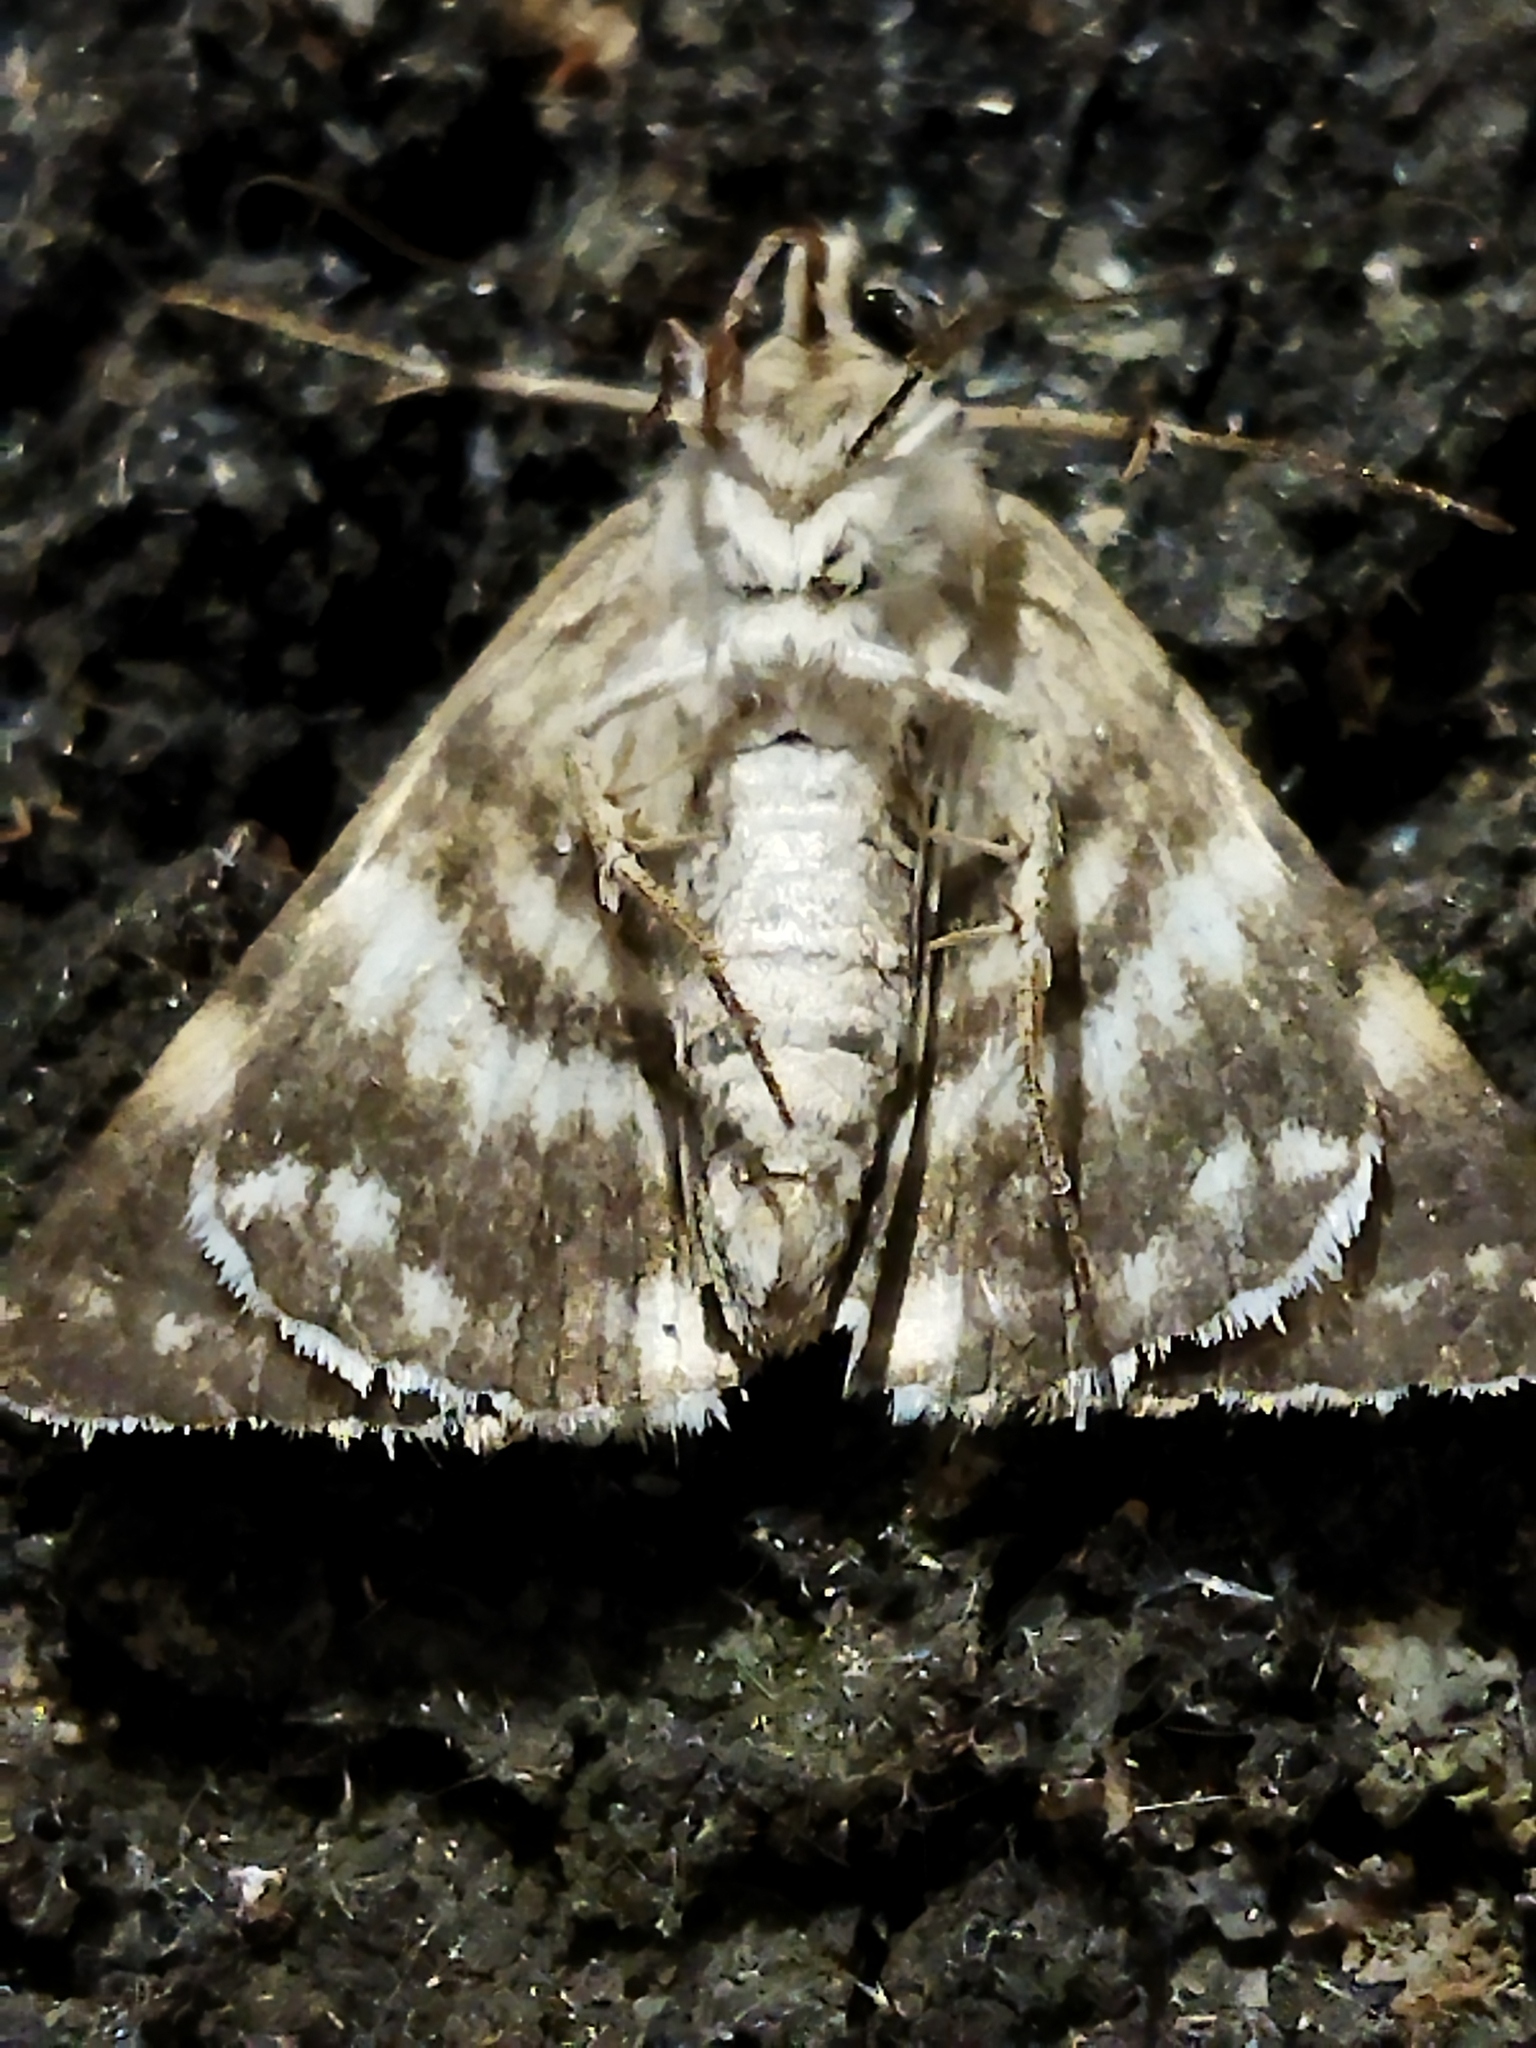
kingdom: Animalia
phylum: Arthropoda
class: Insecta
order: Lepidoptera
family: Erebidae
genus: Grammodes
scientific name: Grammodes stolida
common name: Geometrician
